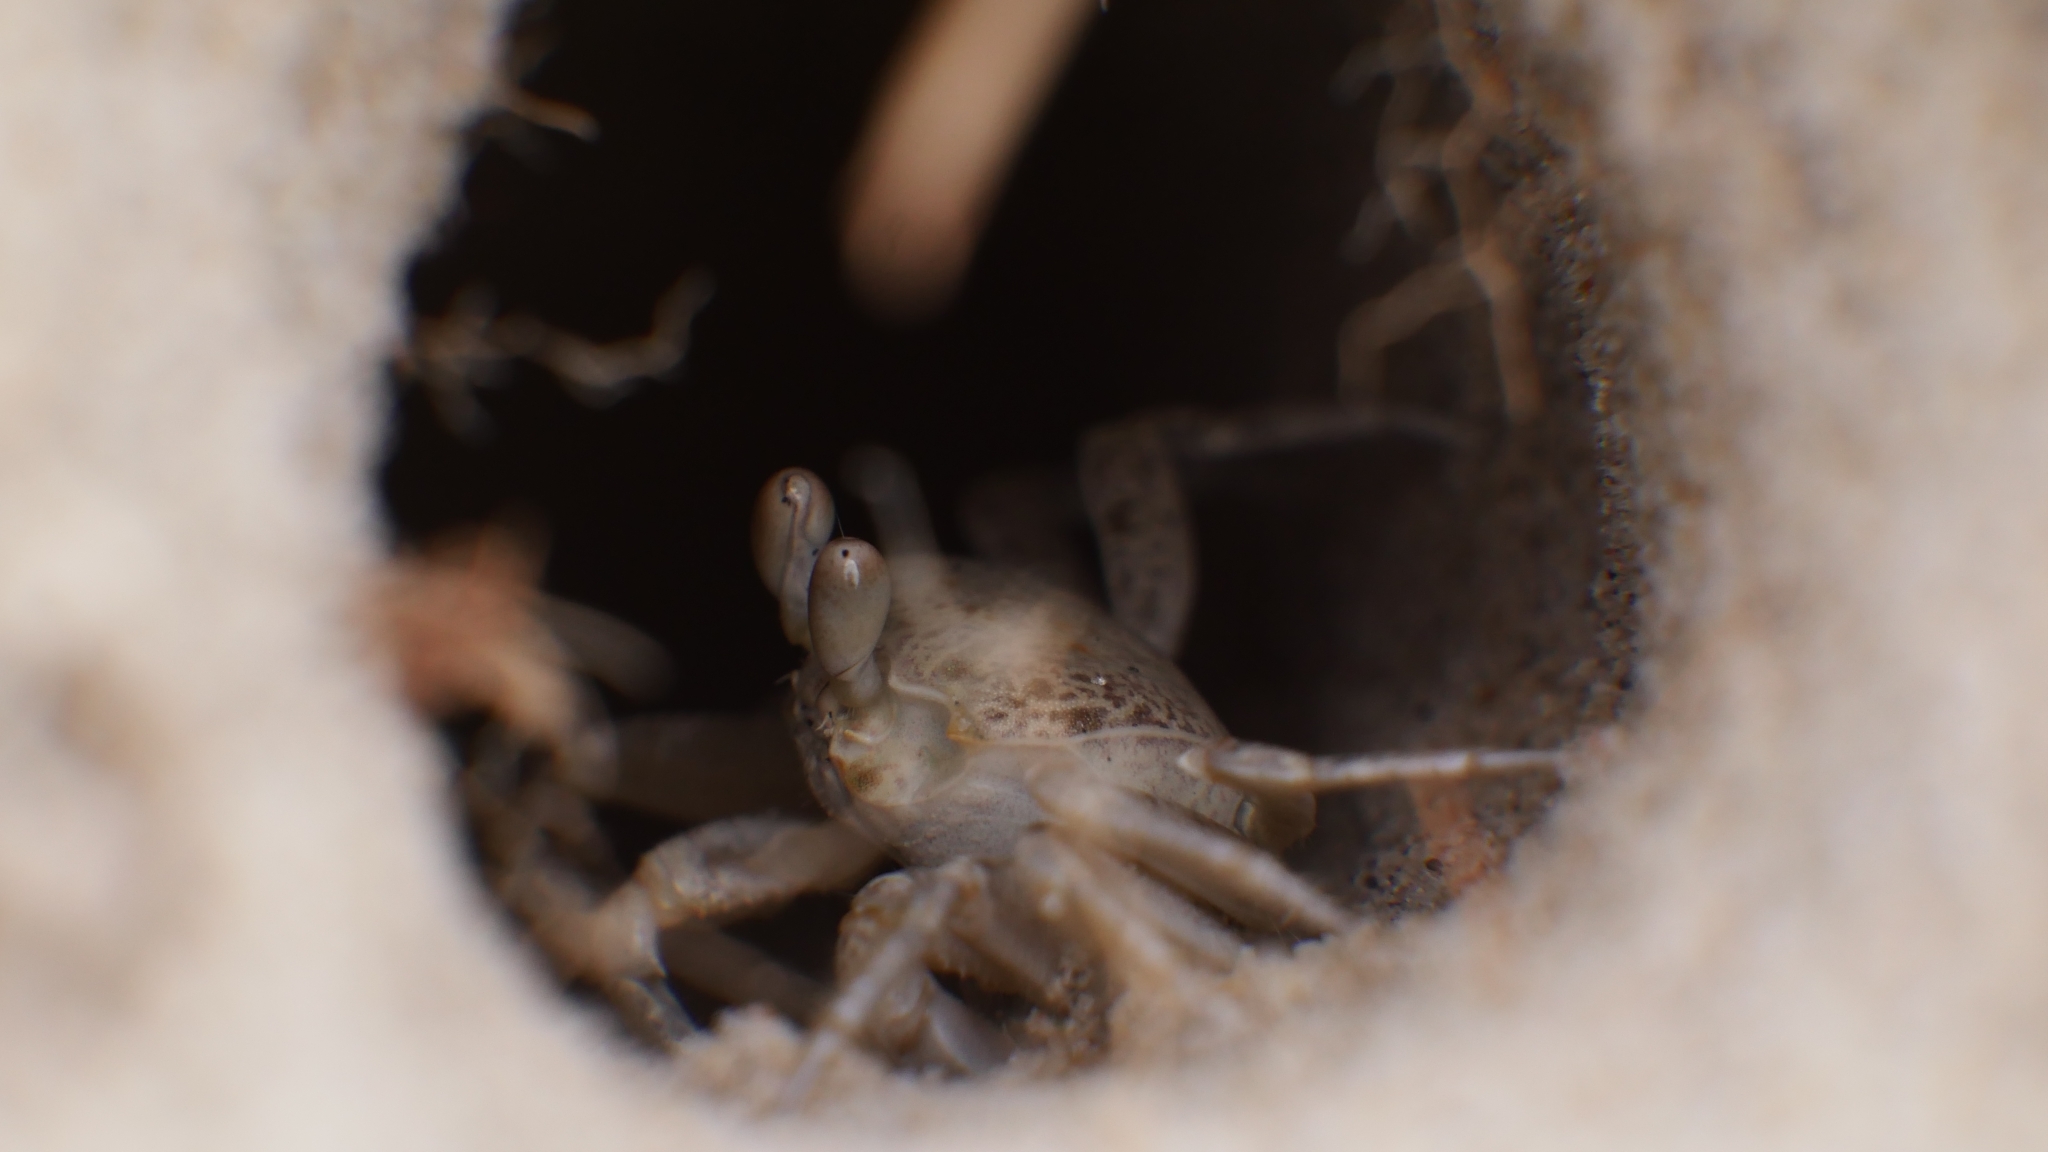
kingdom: Animalia
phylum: Arthropoda
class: Malacostraca
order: Decapoda
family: Ocypodidae
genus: Ocypode
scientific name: Ocypode quadrata
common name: Ghost crab
